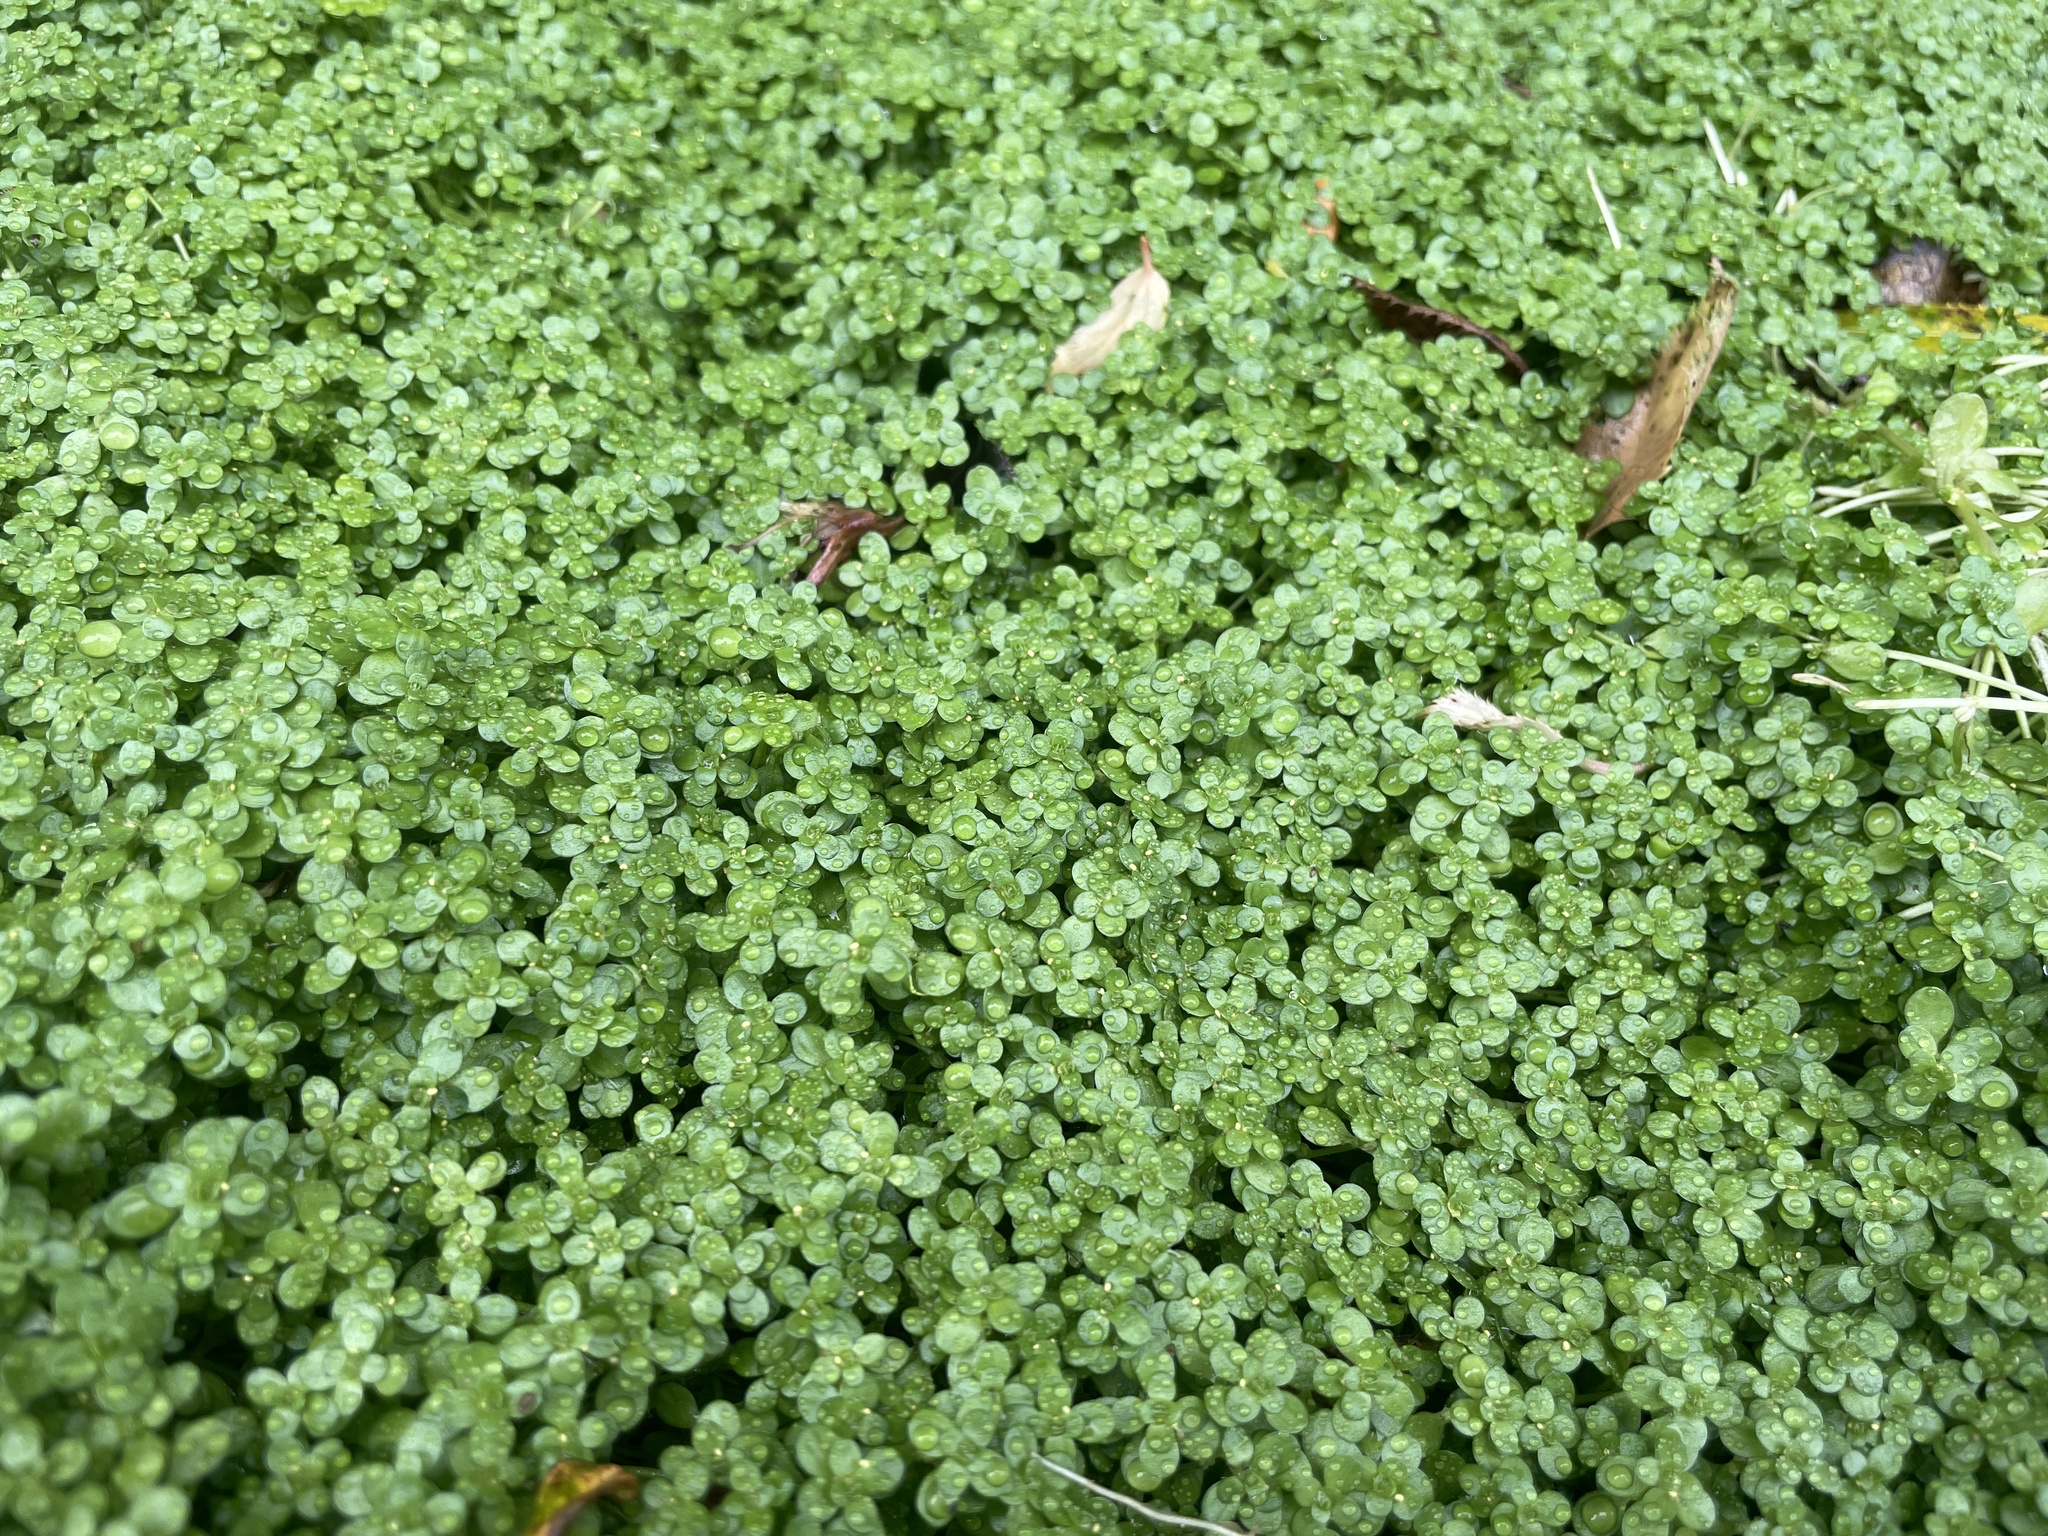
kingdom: Plantae
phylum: Tracheophyta
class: Magnoliopsida
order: Lamiales
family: Plantaginaceae
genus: Callitriche
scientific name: Callitriche stagnalis
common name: Common water-starwort
